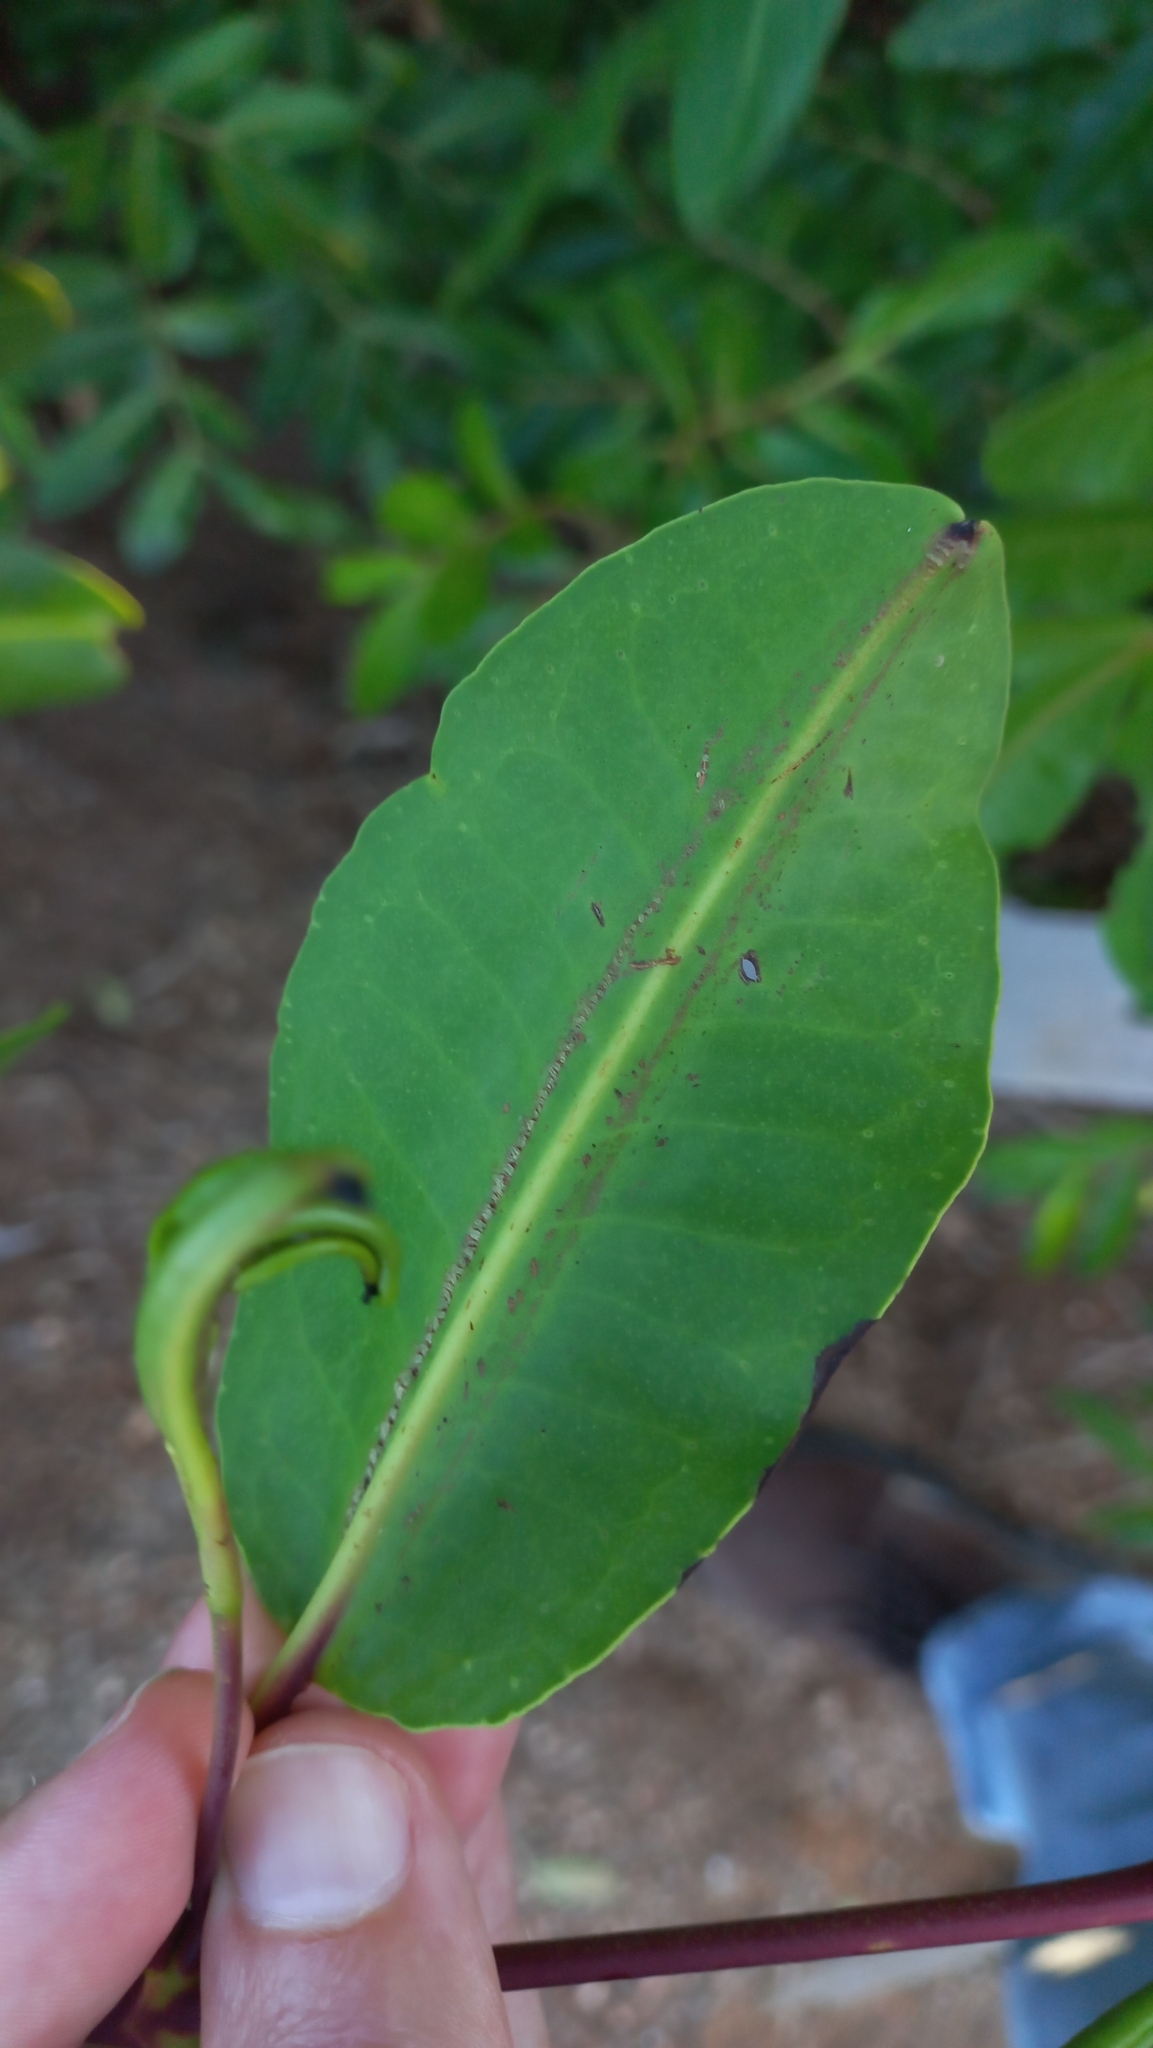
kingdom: Plantae
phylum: Tracheophyta
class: Magnoliopsida
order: Myrtales
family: Combretaceae
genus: Laguncularia
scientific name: Laguncularia racemosa
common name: White mangrove
